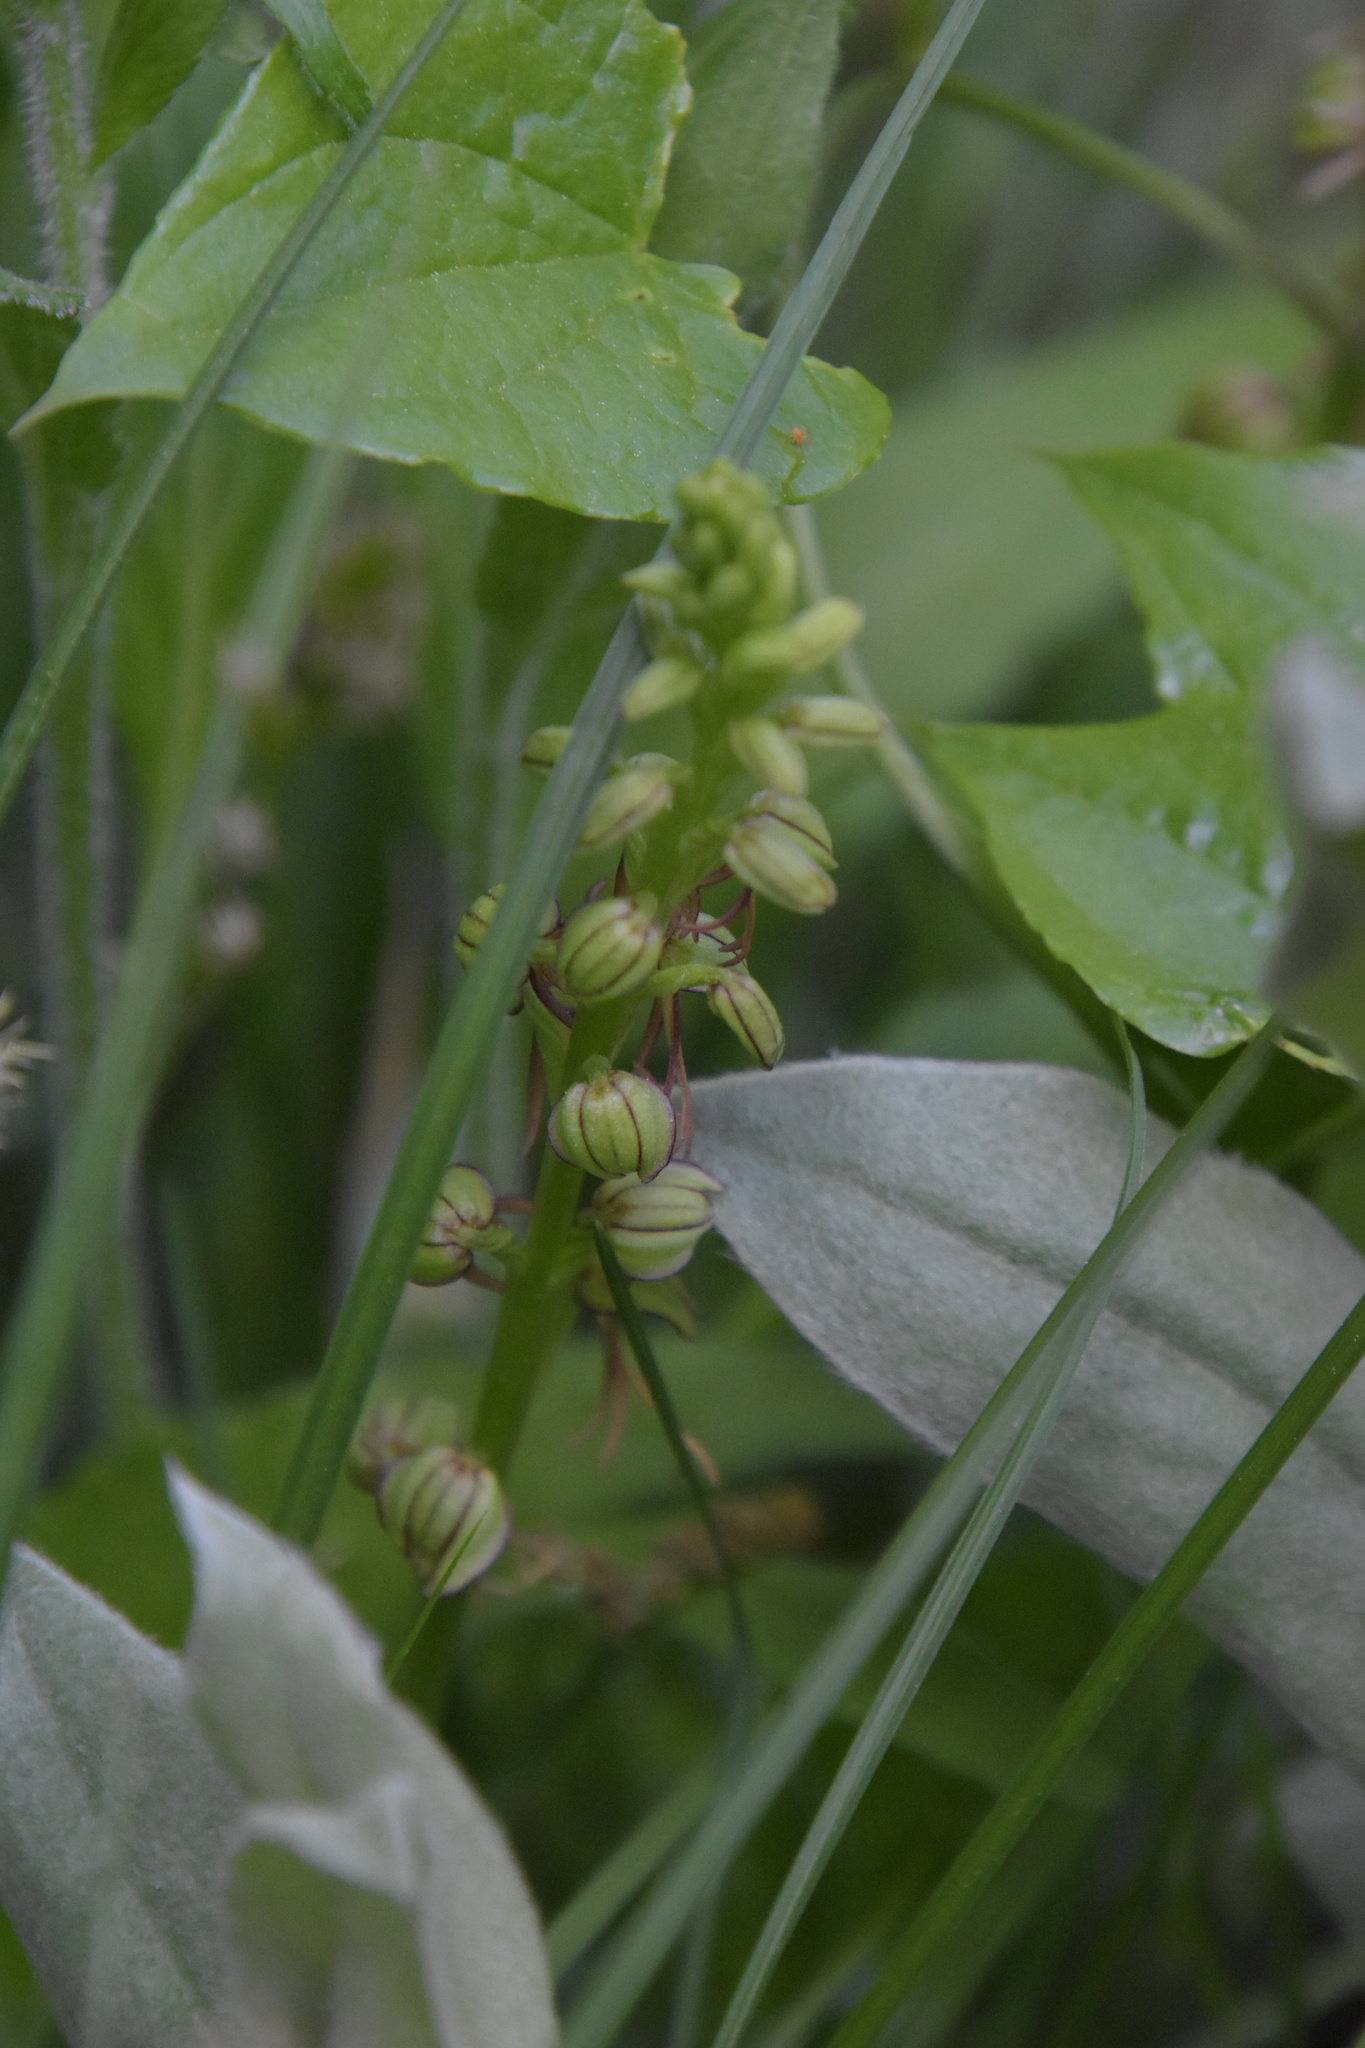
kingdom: Plantae
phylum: Tracheophyta
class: Liliopsida
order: Asparagales
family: Orchidaceae
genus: Orchis
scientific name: Orchis anthropophora
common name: Man orchid
